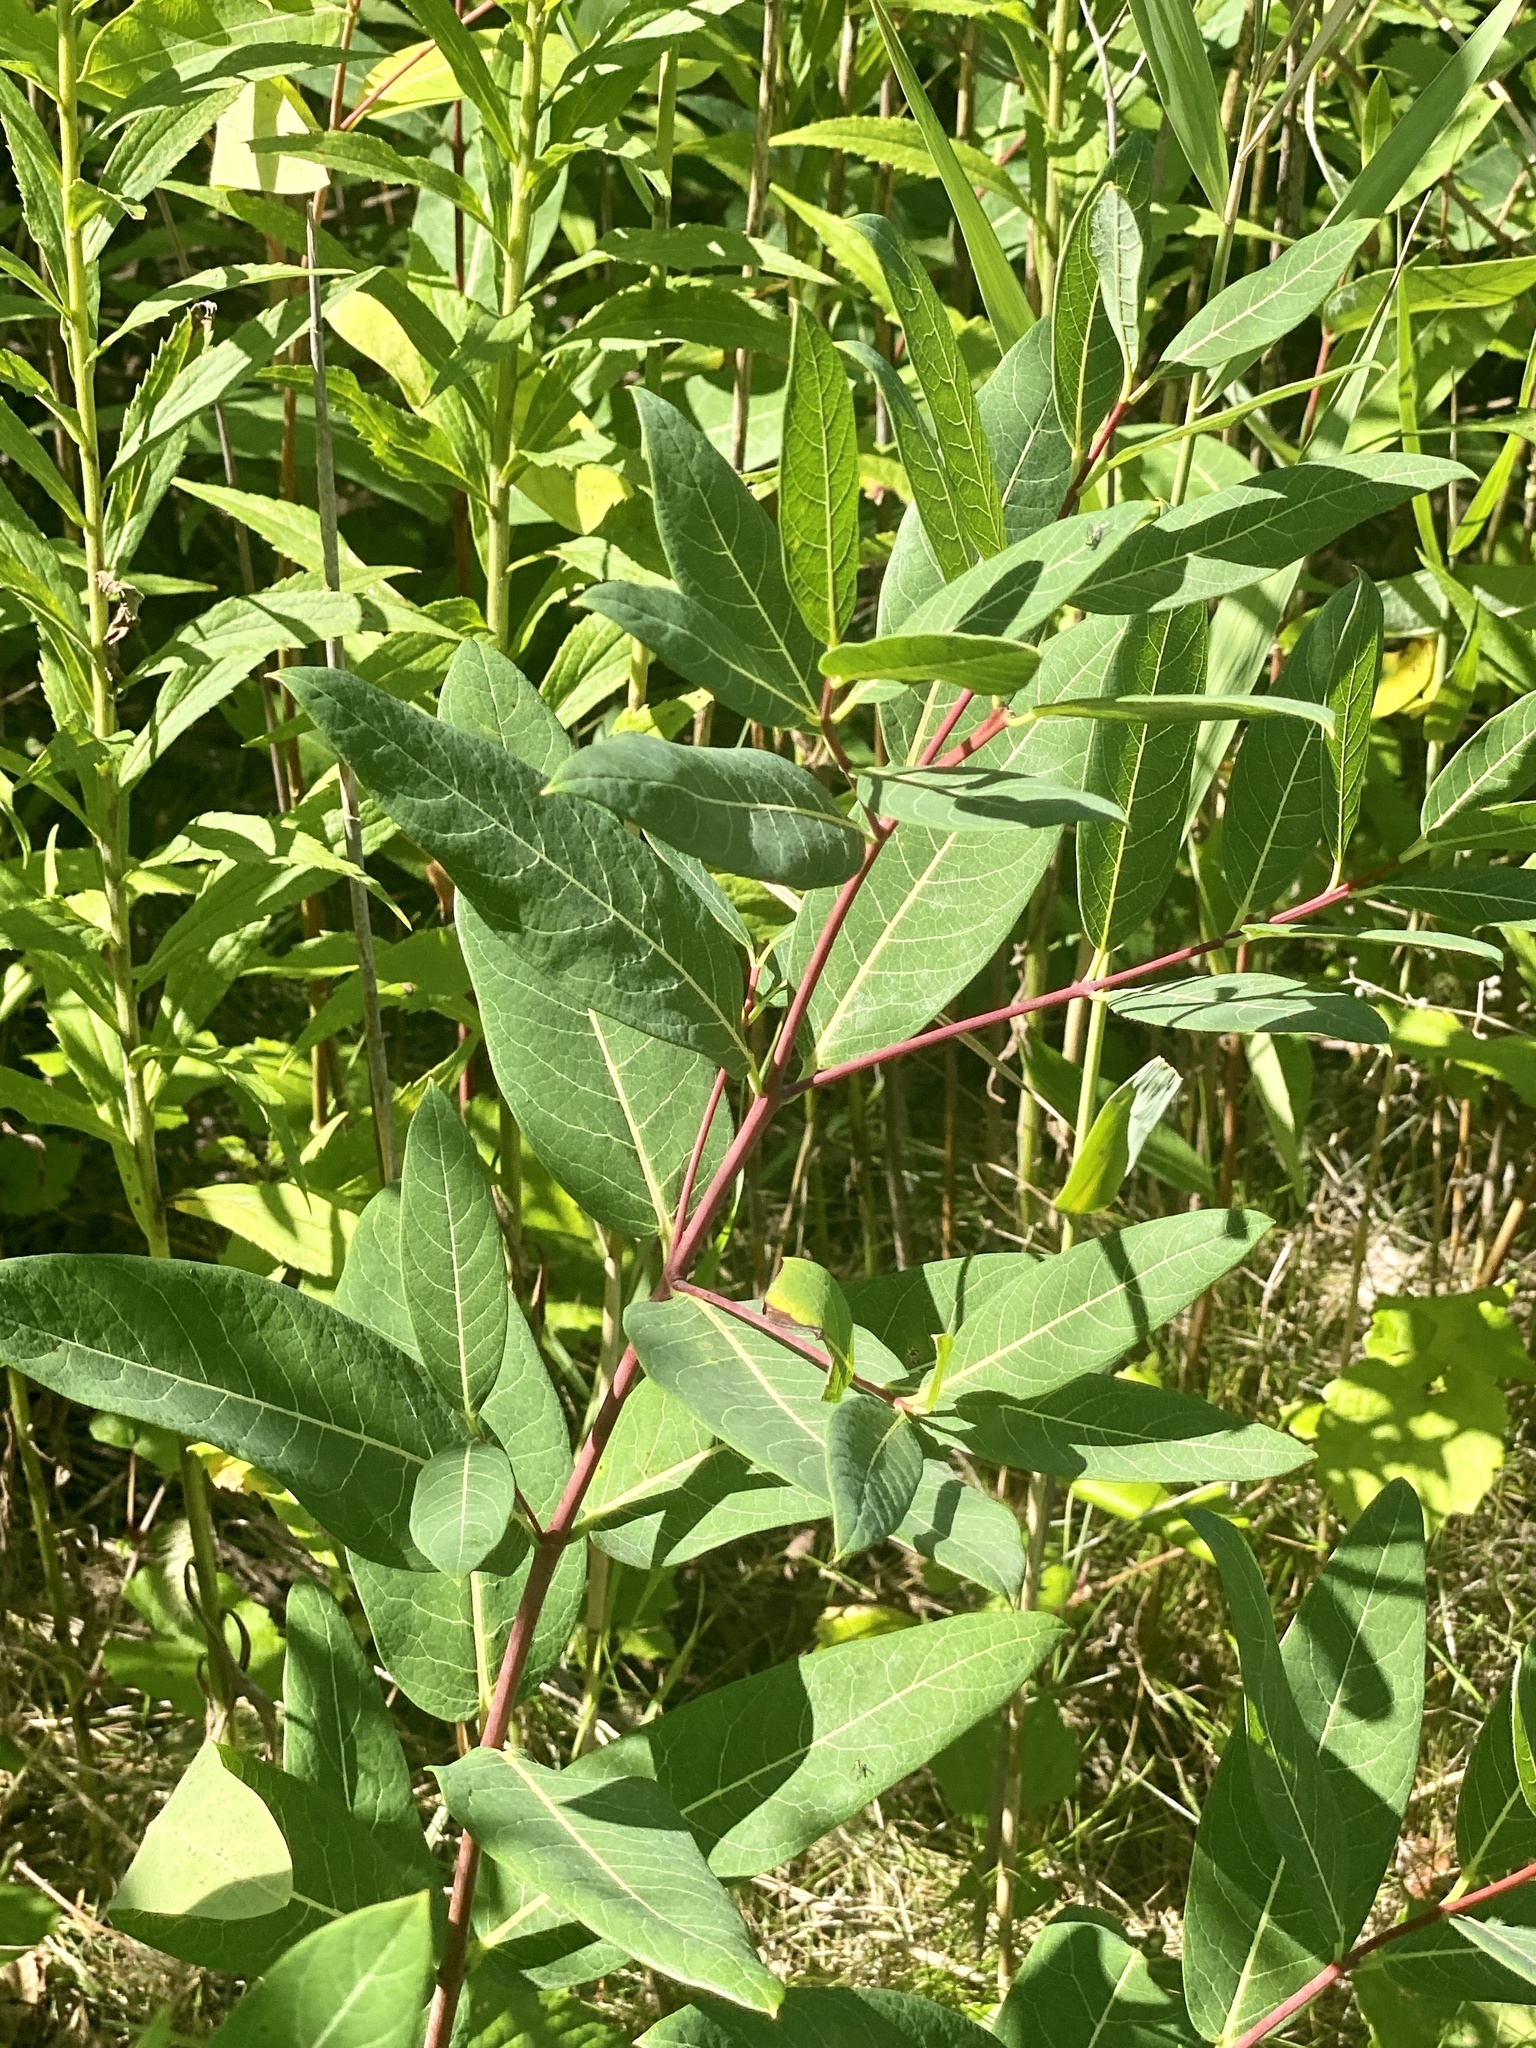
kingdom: Plantae
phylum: Tracheophyta
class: Magnoliopsida
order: Gentianales
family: Apocynaceae
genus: Apocynum
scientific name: Apocynum cannabinum
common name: Hemp dogbane
